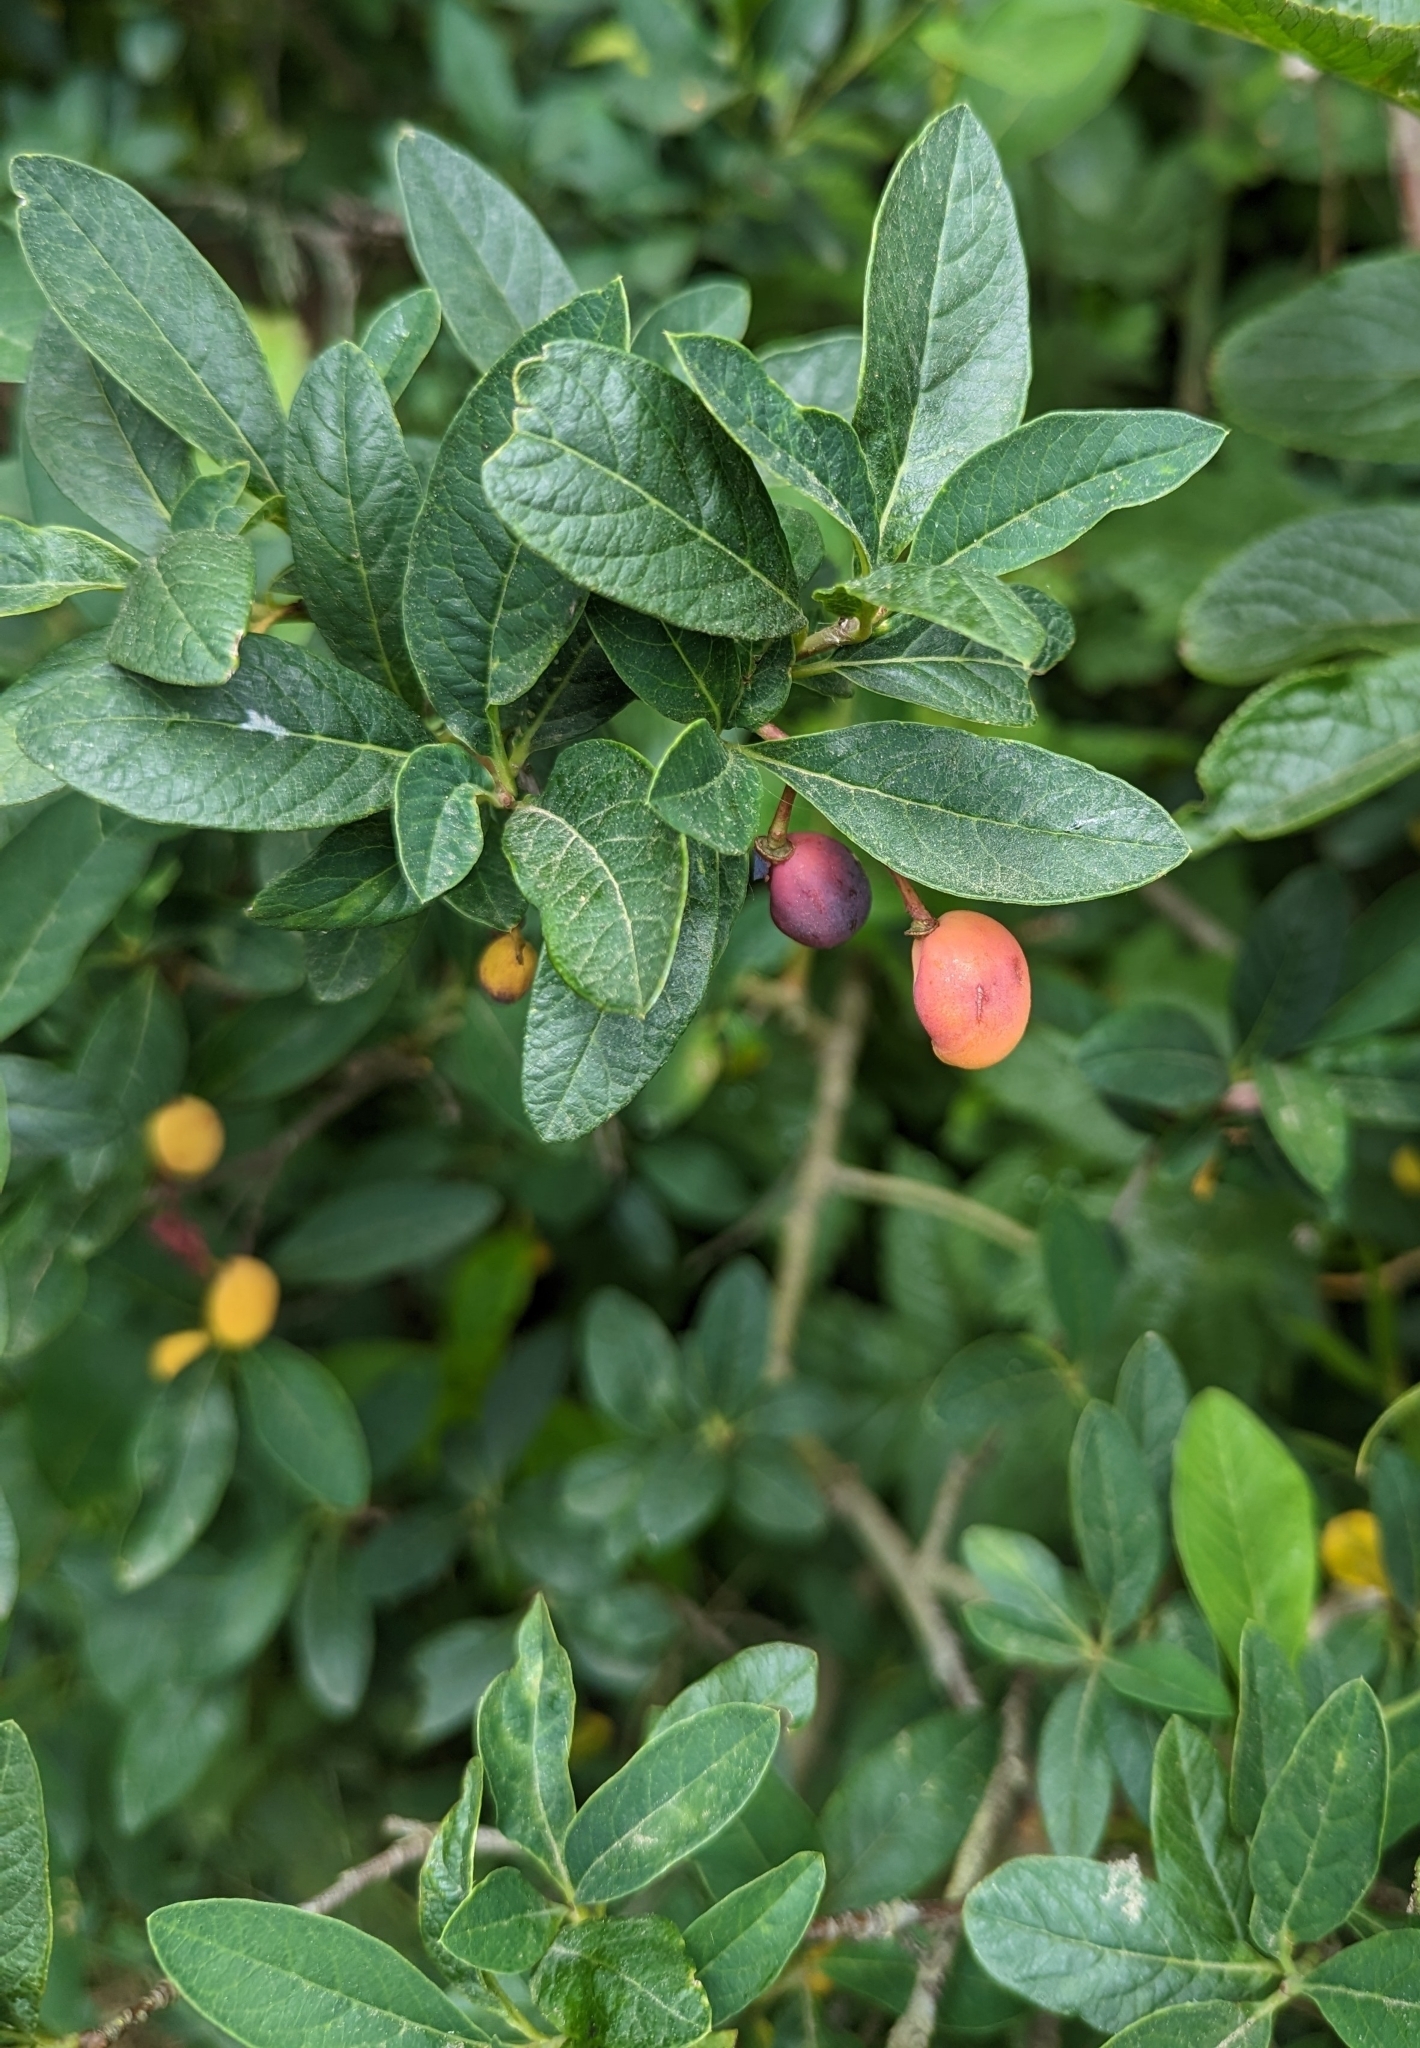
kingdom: Plantae
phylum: Tracheophyta
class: Magnoliopsida
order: Rosales
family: Rosaceae
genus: Oemleria
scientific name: Oemleria cerasiformis
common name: Osoberry
